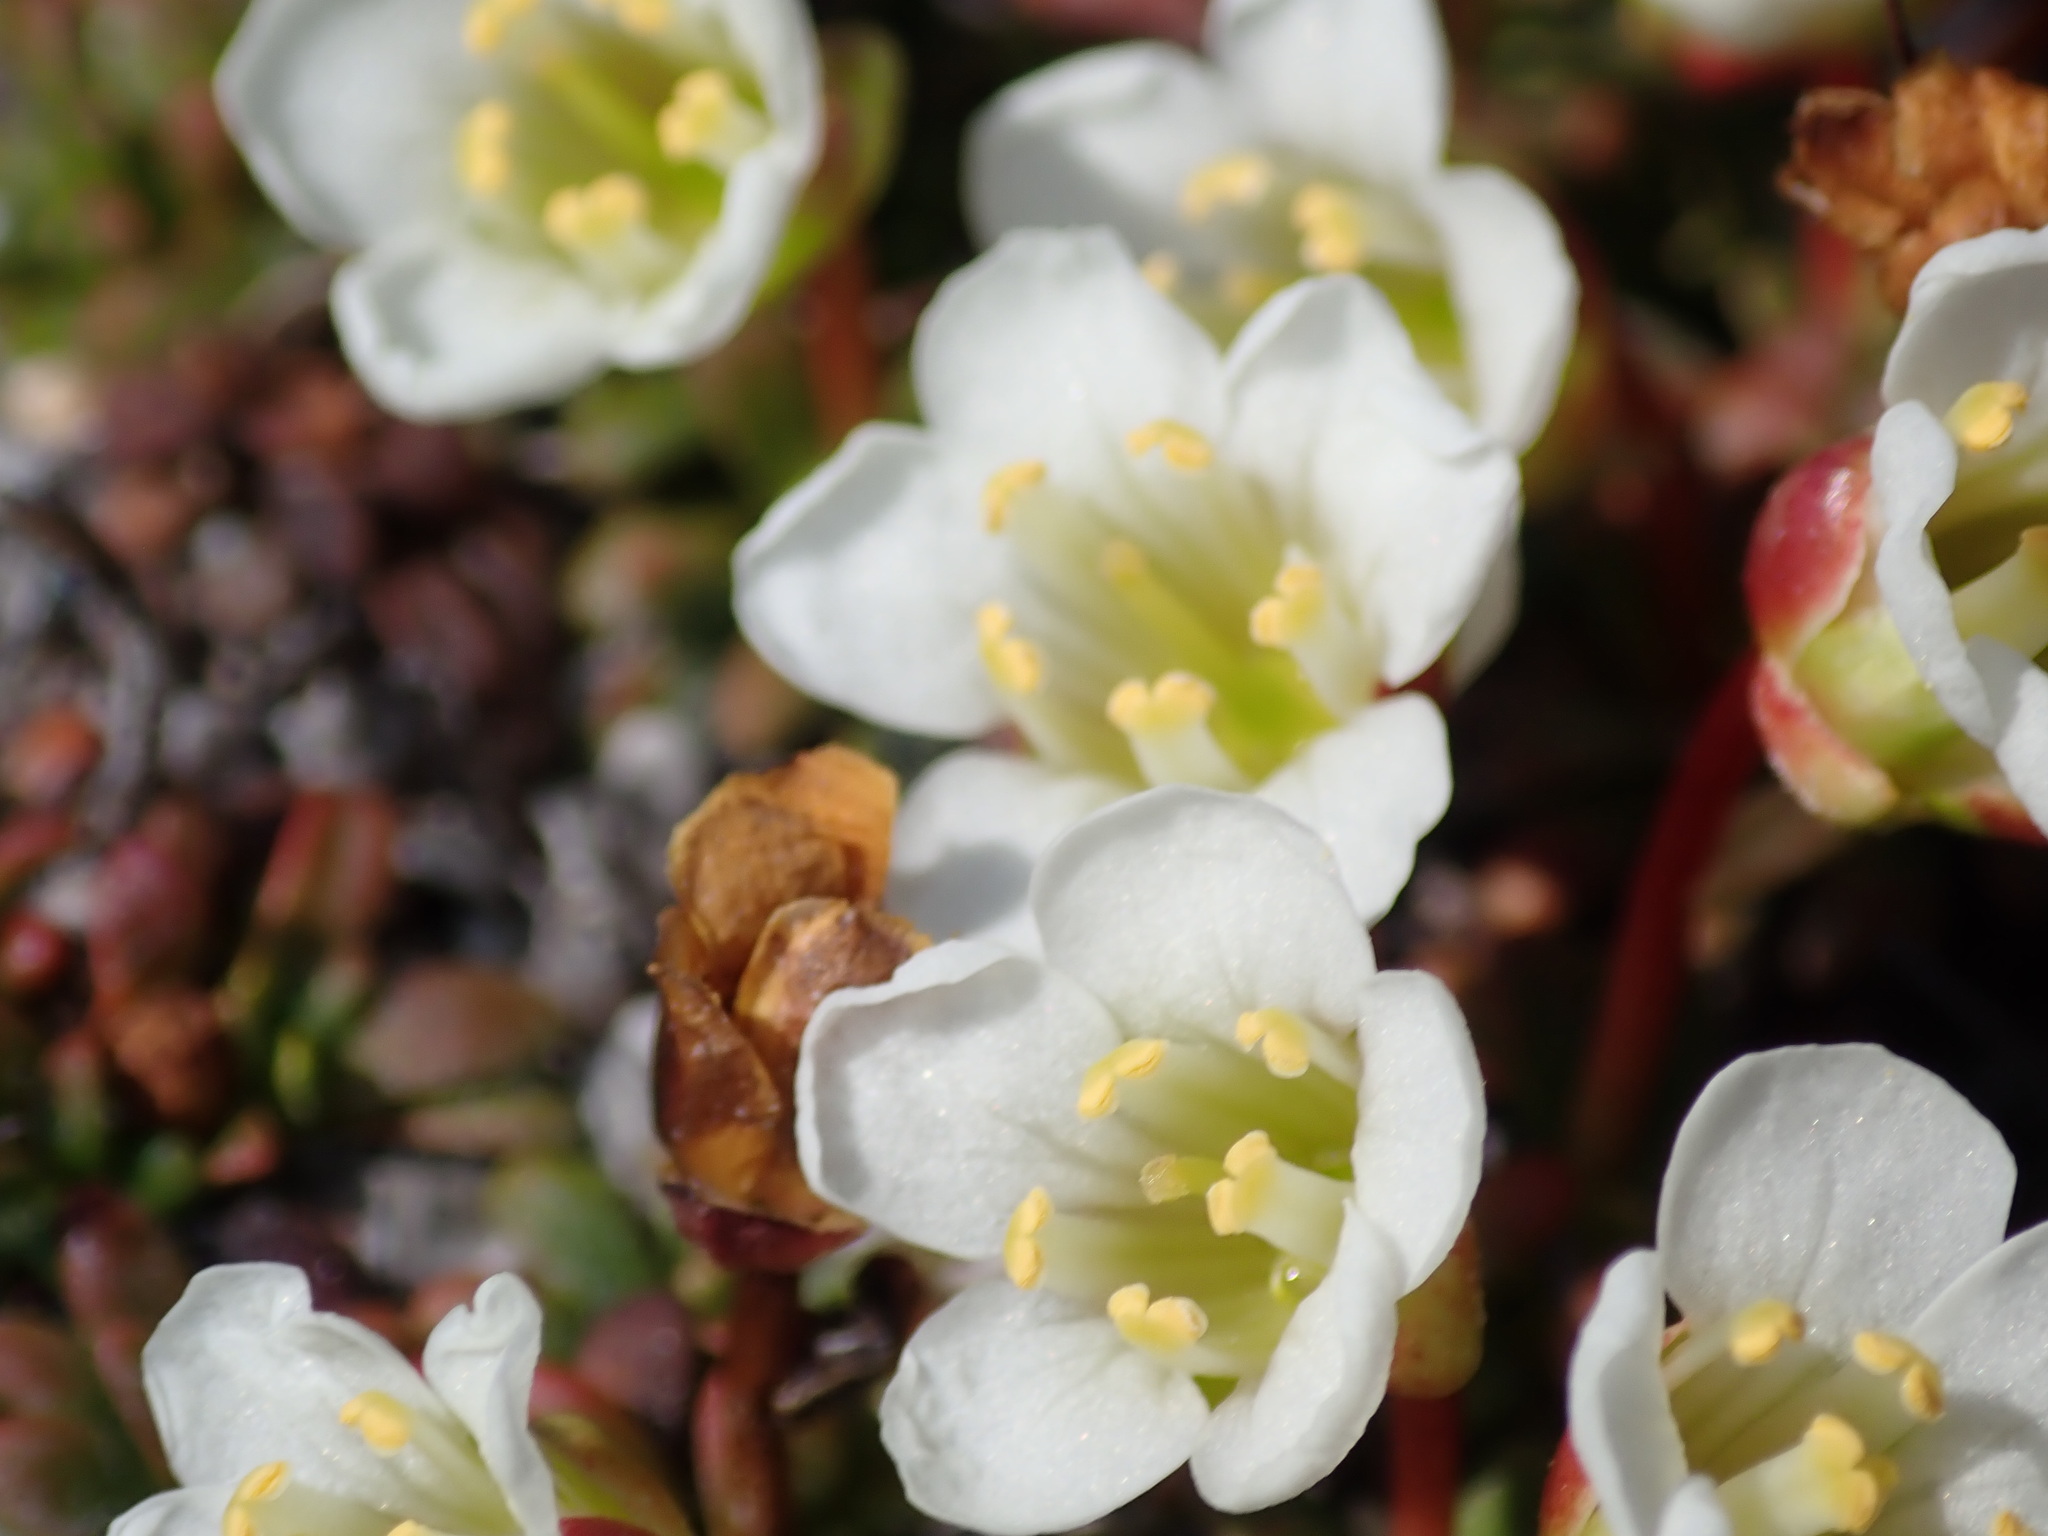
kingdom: Plantae
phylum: Tracheophyta
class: Magnoliopsida
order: Ericales
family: Diapensiaceae
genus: Diapensia
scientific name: Diapensia lapponica
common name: Diapensia
